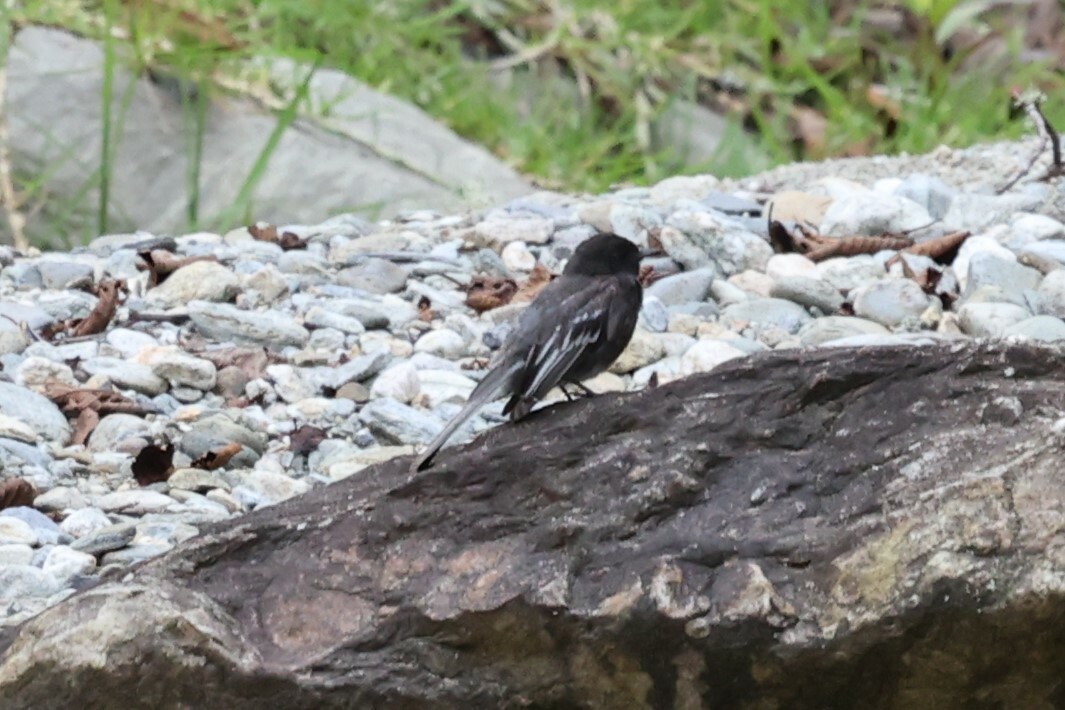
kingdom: Animalia
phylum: Chordata
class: Aves
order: Passeriformes
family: Tyrannidae
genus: Sayornis
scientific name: Sayornis nigricans
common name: Black phoebe
